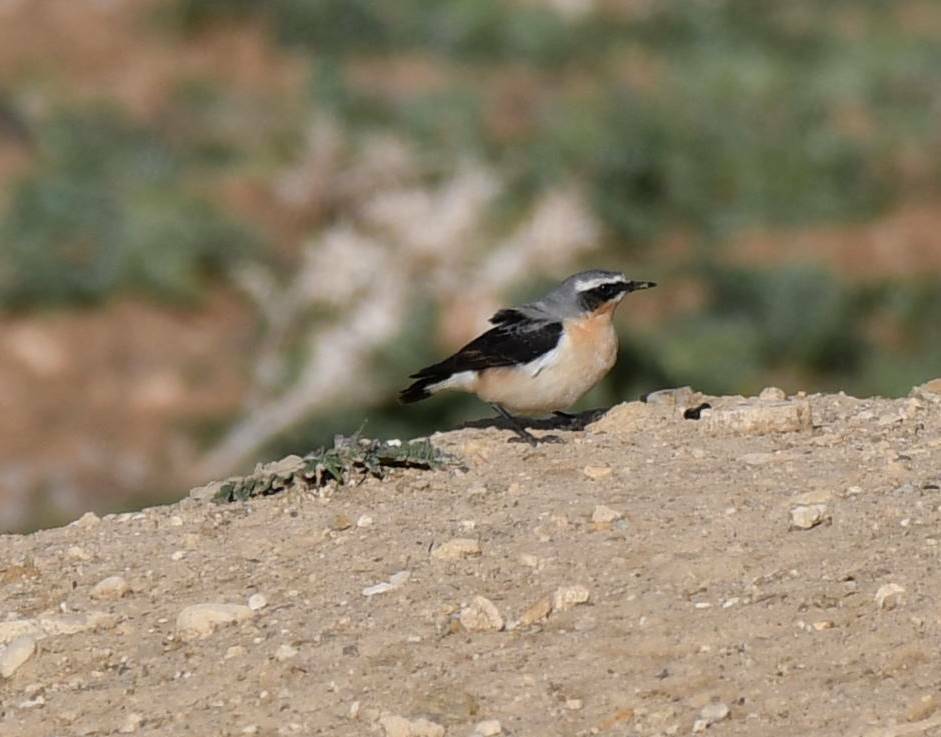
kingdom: Animalia
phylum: Chordata
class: Aves
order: Passeriformes
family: Muscicapidae
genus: Oenanthe
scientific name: Oenanthe oenanthe
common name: Northern wheatear
